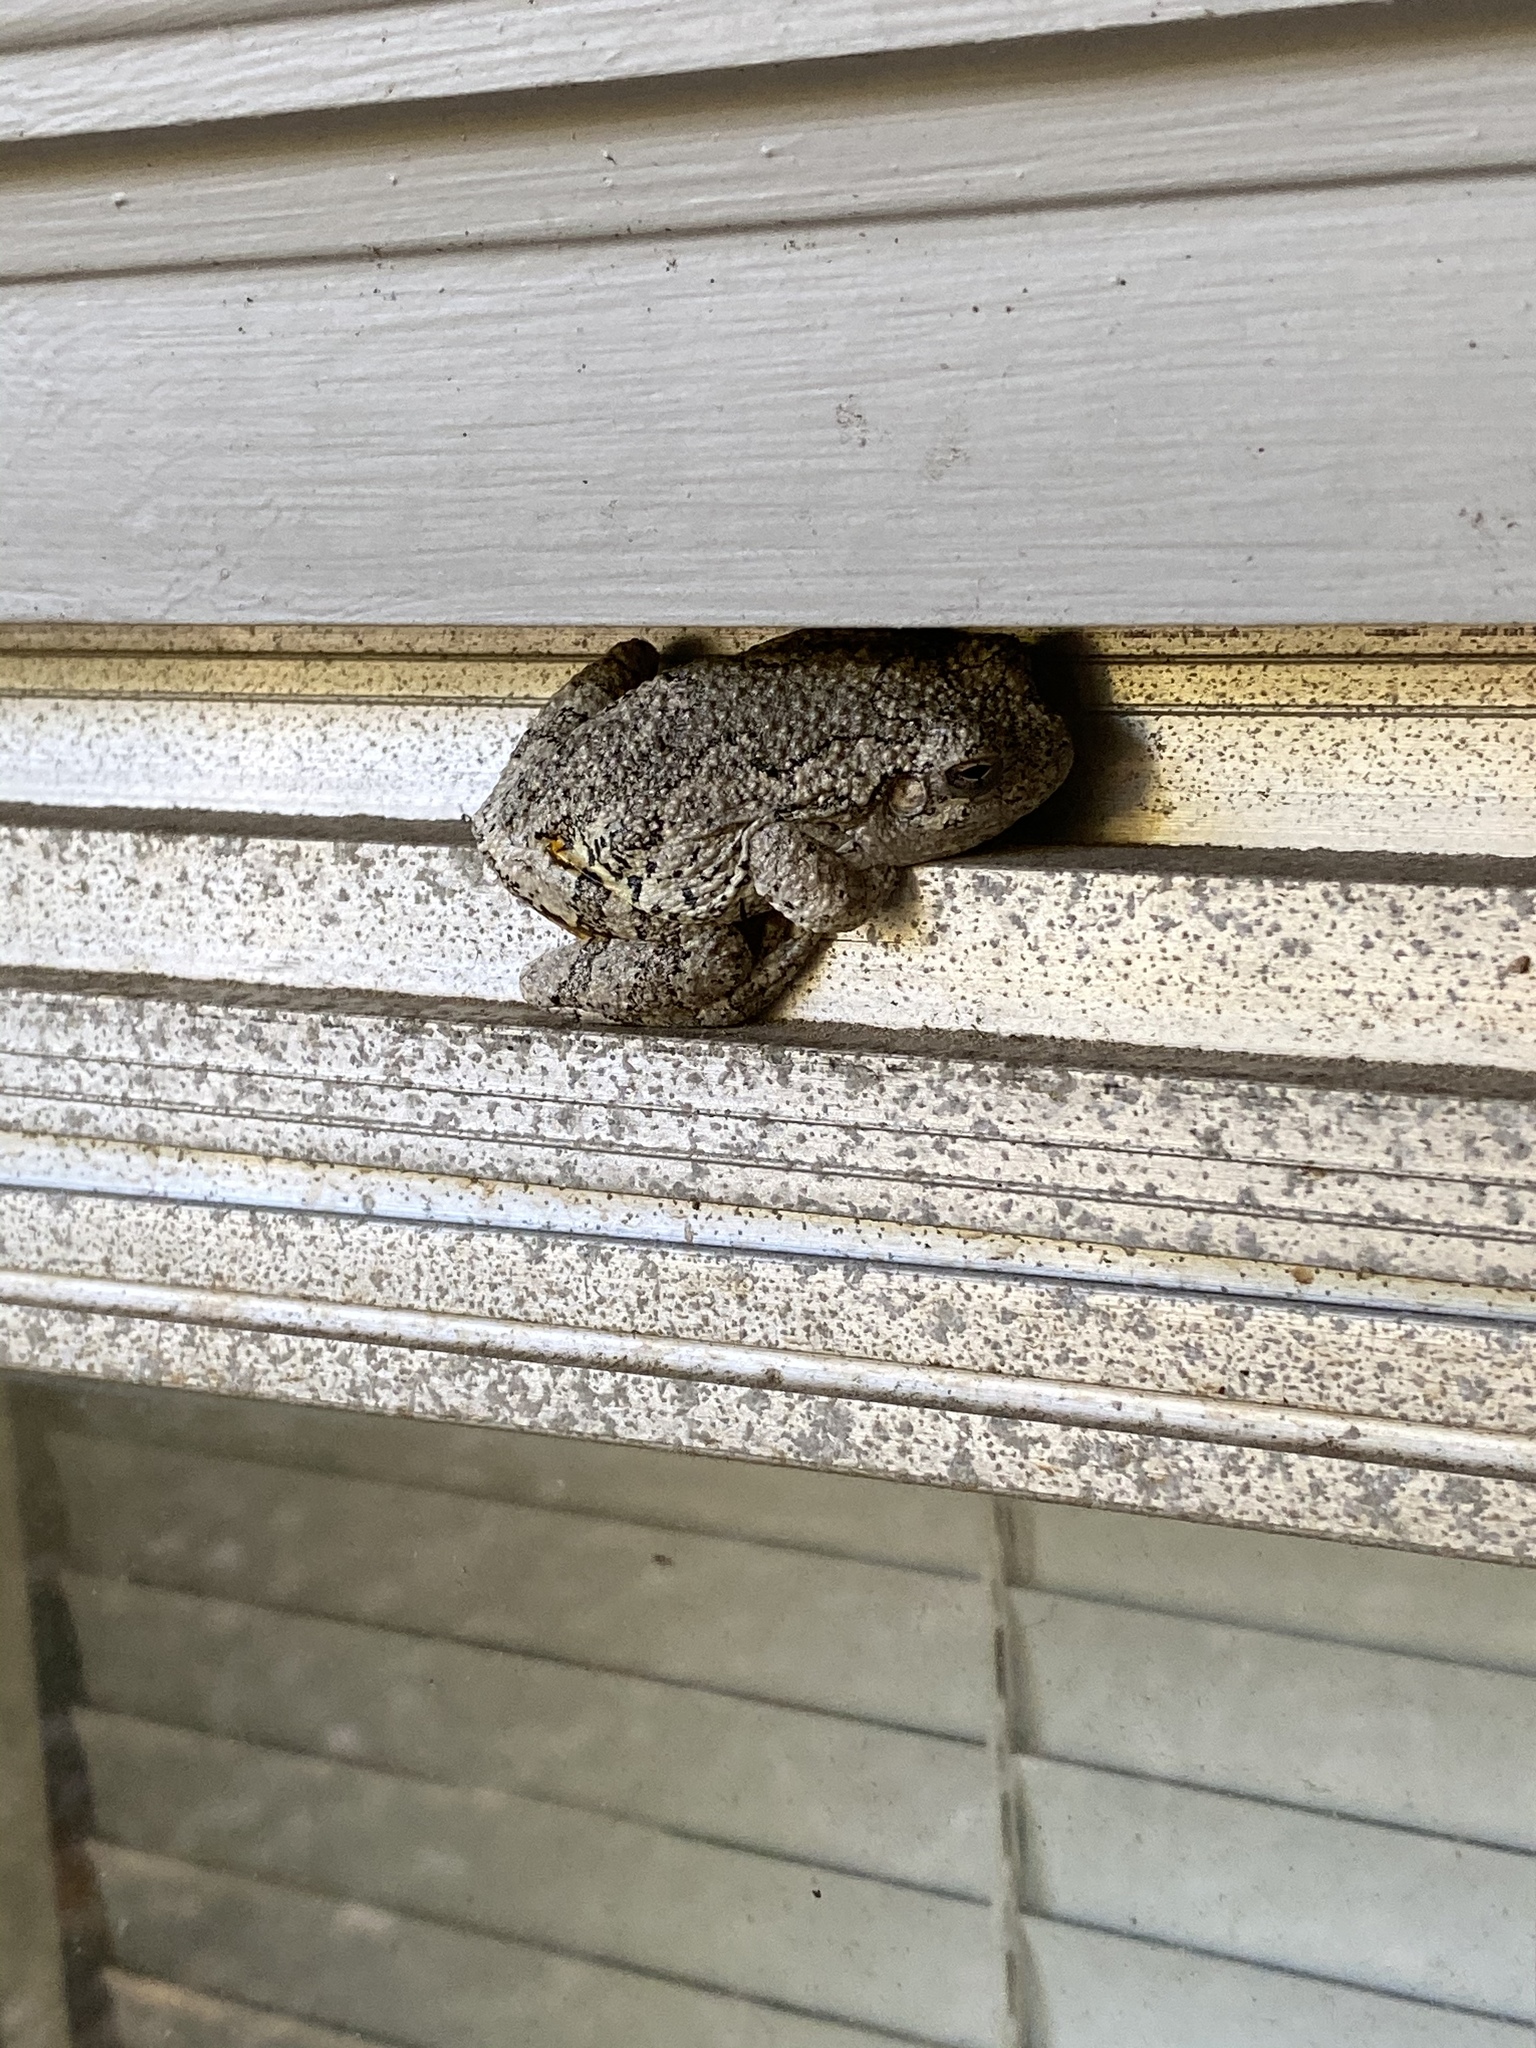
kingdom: Animalia
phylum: Chordata
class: Amphibia
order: Anura
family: Hylidae
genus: Dryophytes
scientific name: Dryophytes chrysoscelis
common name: Cope's gray treefrog
